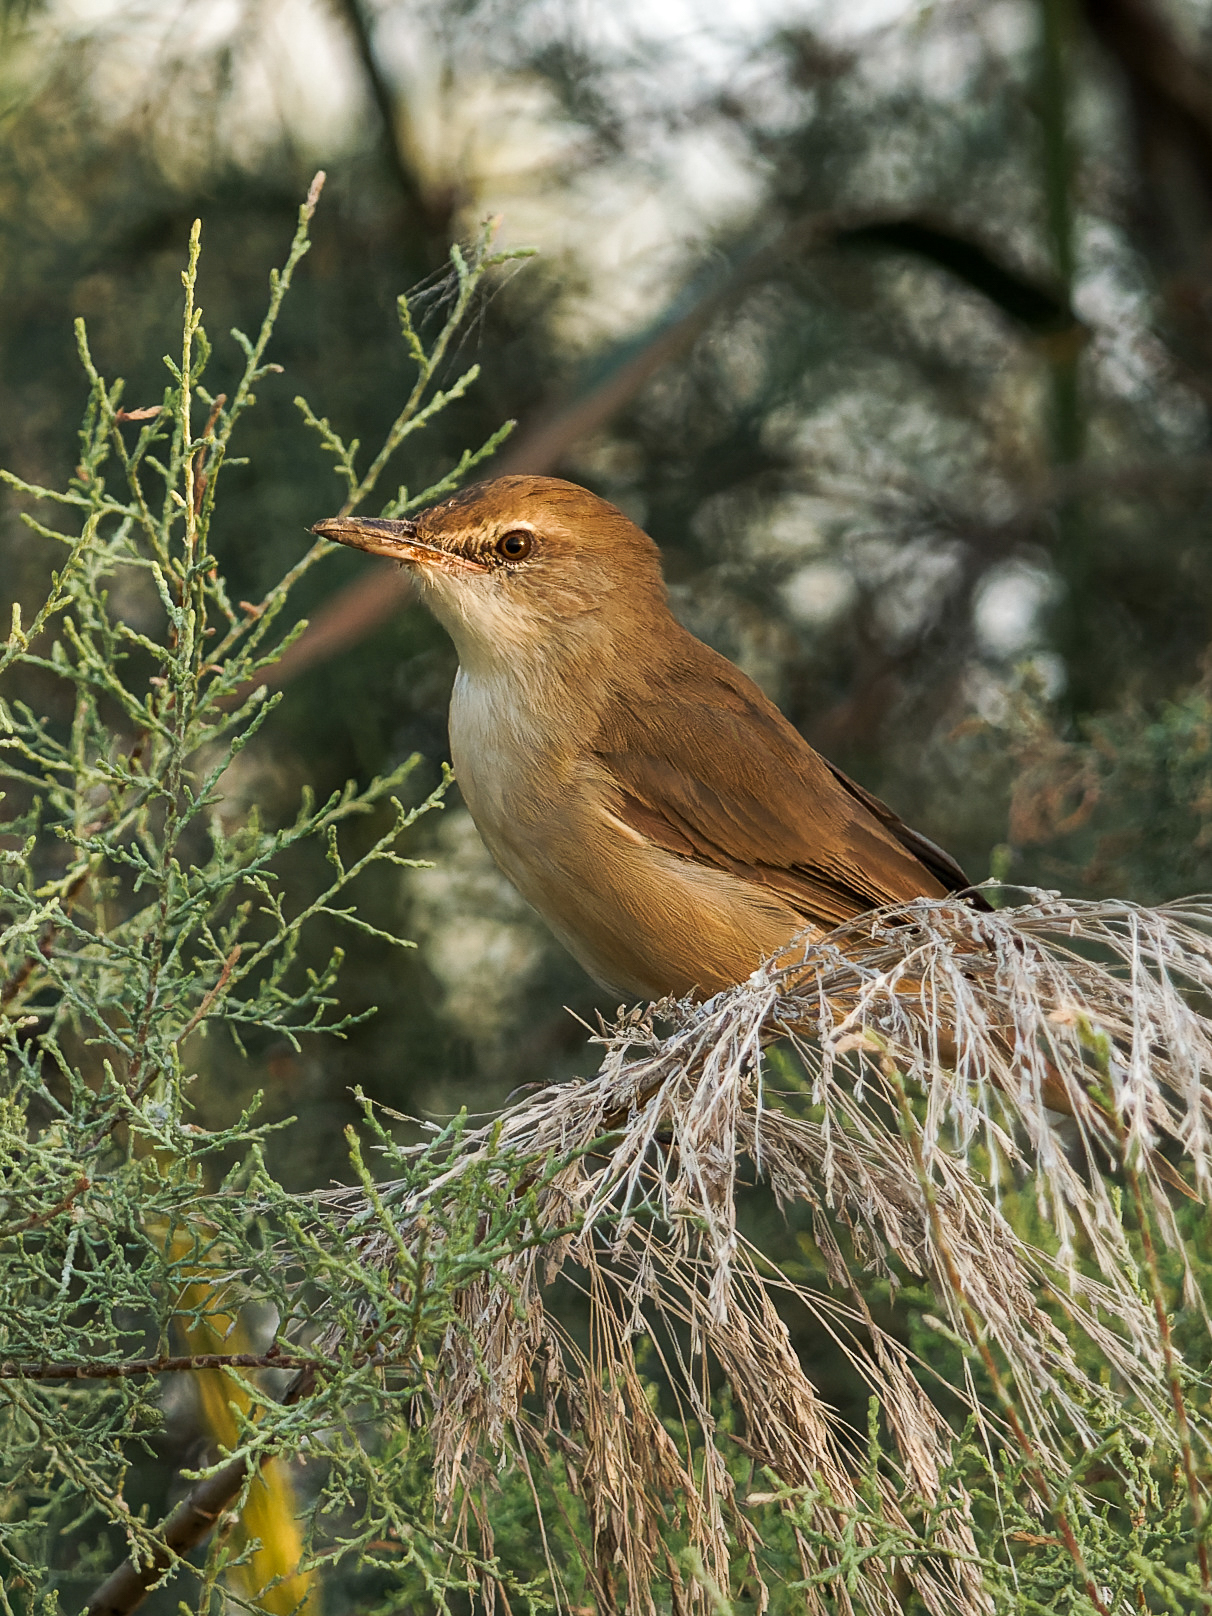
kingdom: Animalia
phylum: Chordata
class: Aves
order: Passeriformes
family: Acrocephalidae
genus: Acrocephalus
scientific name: Acrocephalus stentoreus
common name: Clamorous reed warbler
